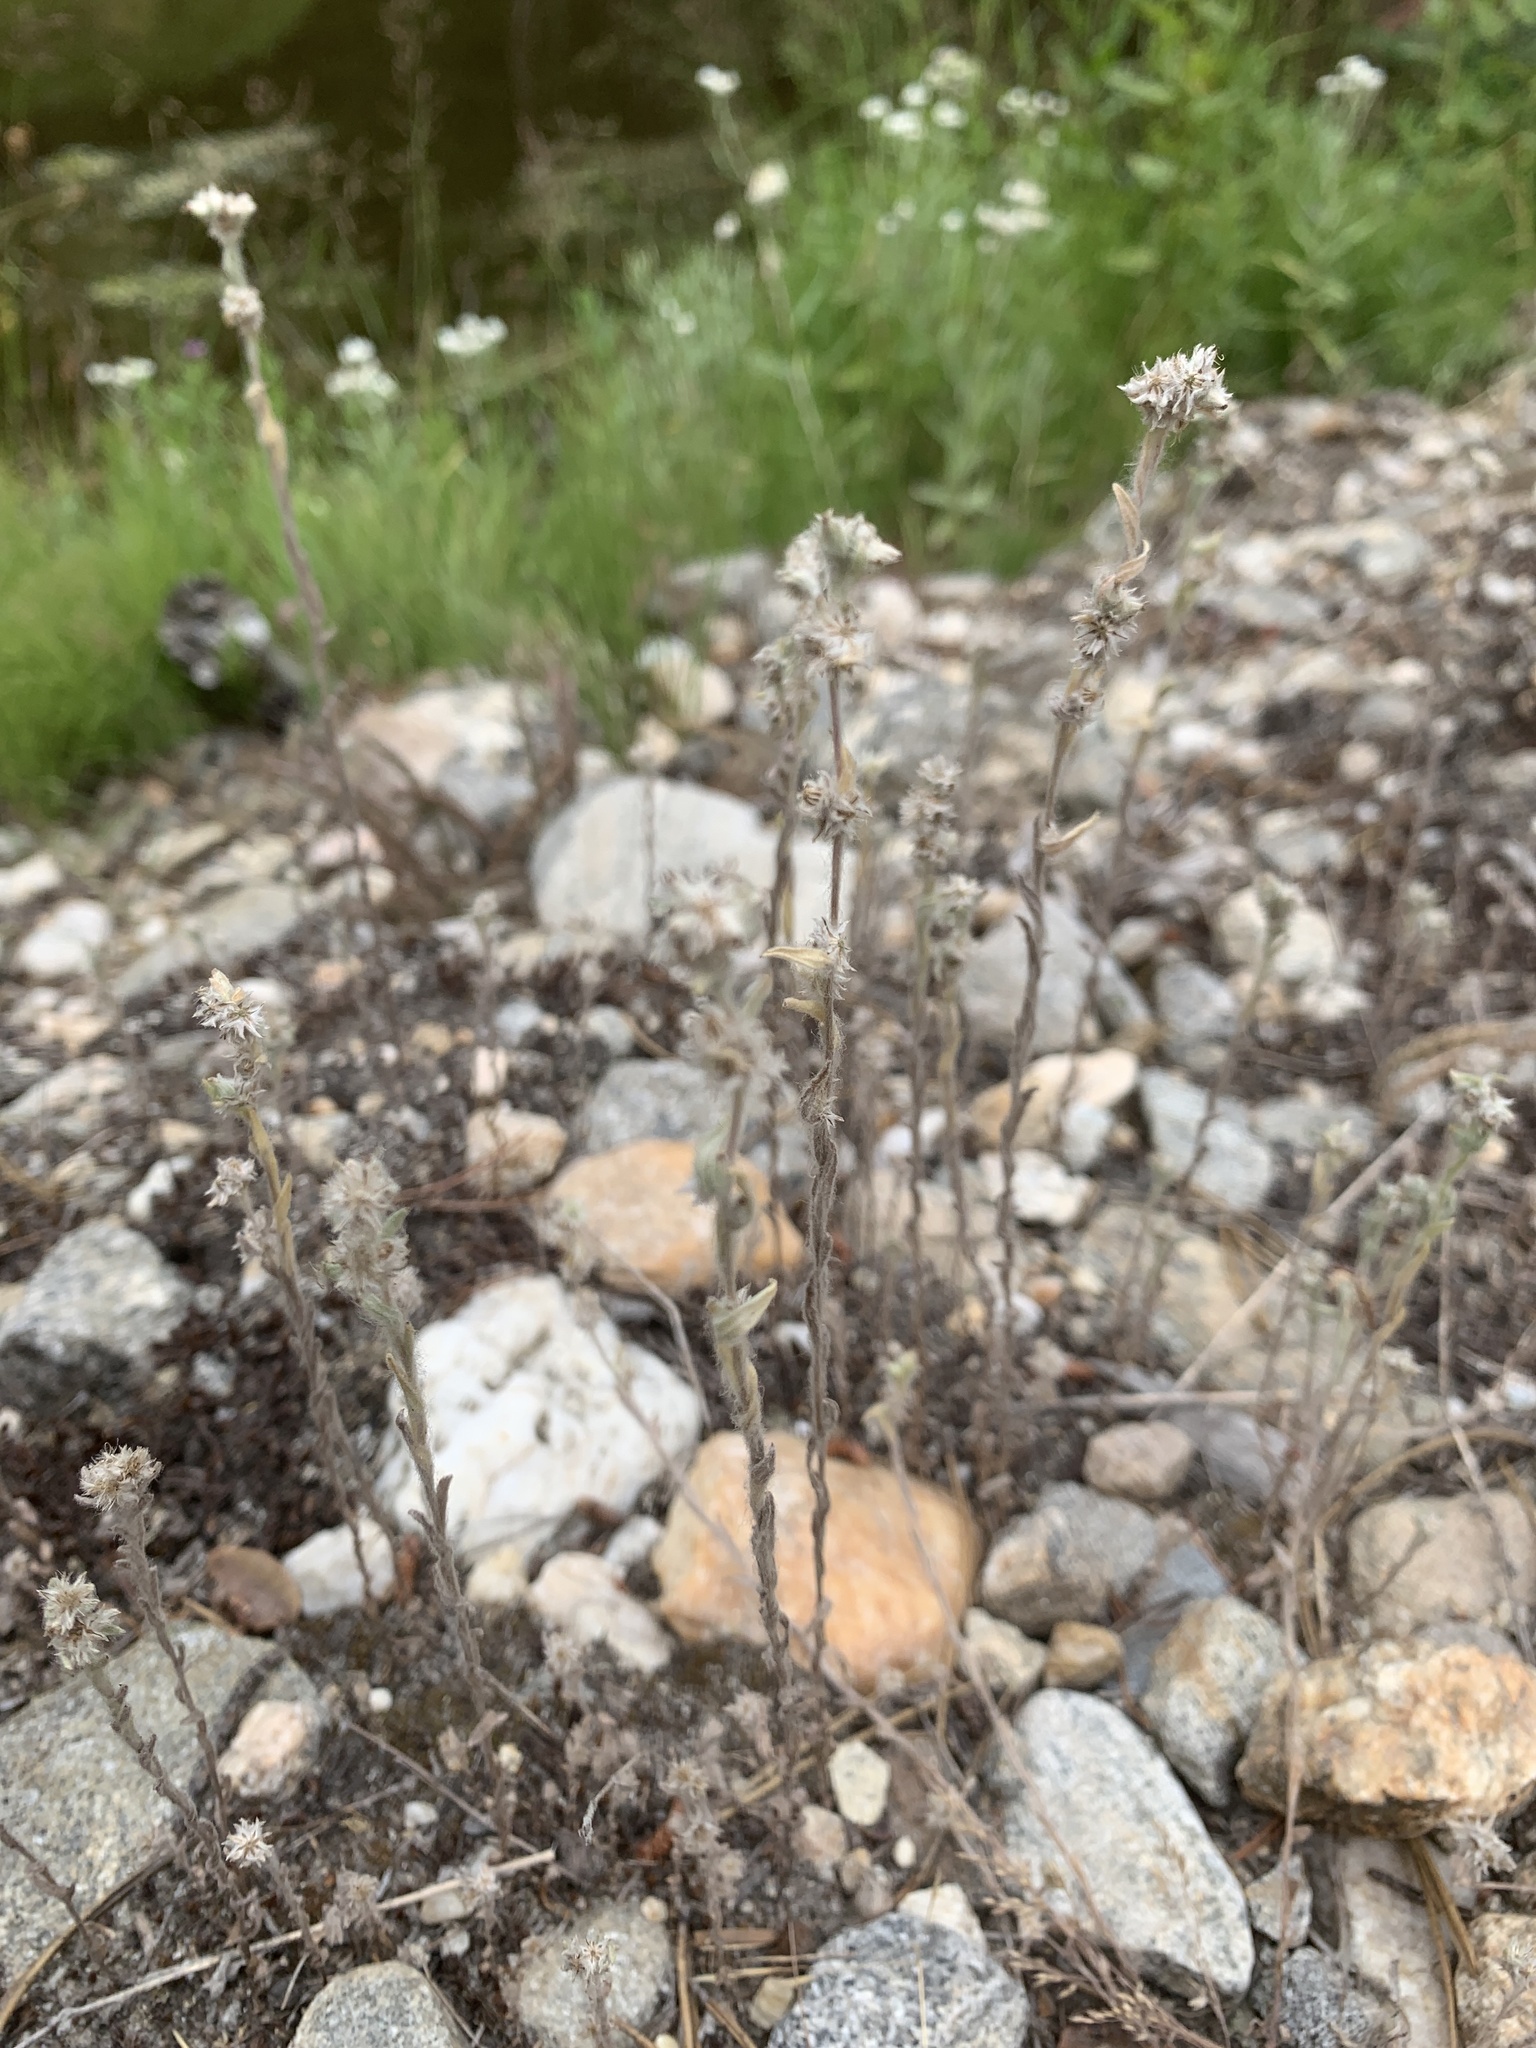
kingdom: Plantae
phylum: Tracheophyta
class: Magnoliopsida
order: Asterales
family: Asteraceae
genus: Filago
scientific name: Filago arvensis
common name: Field cudweed
